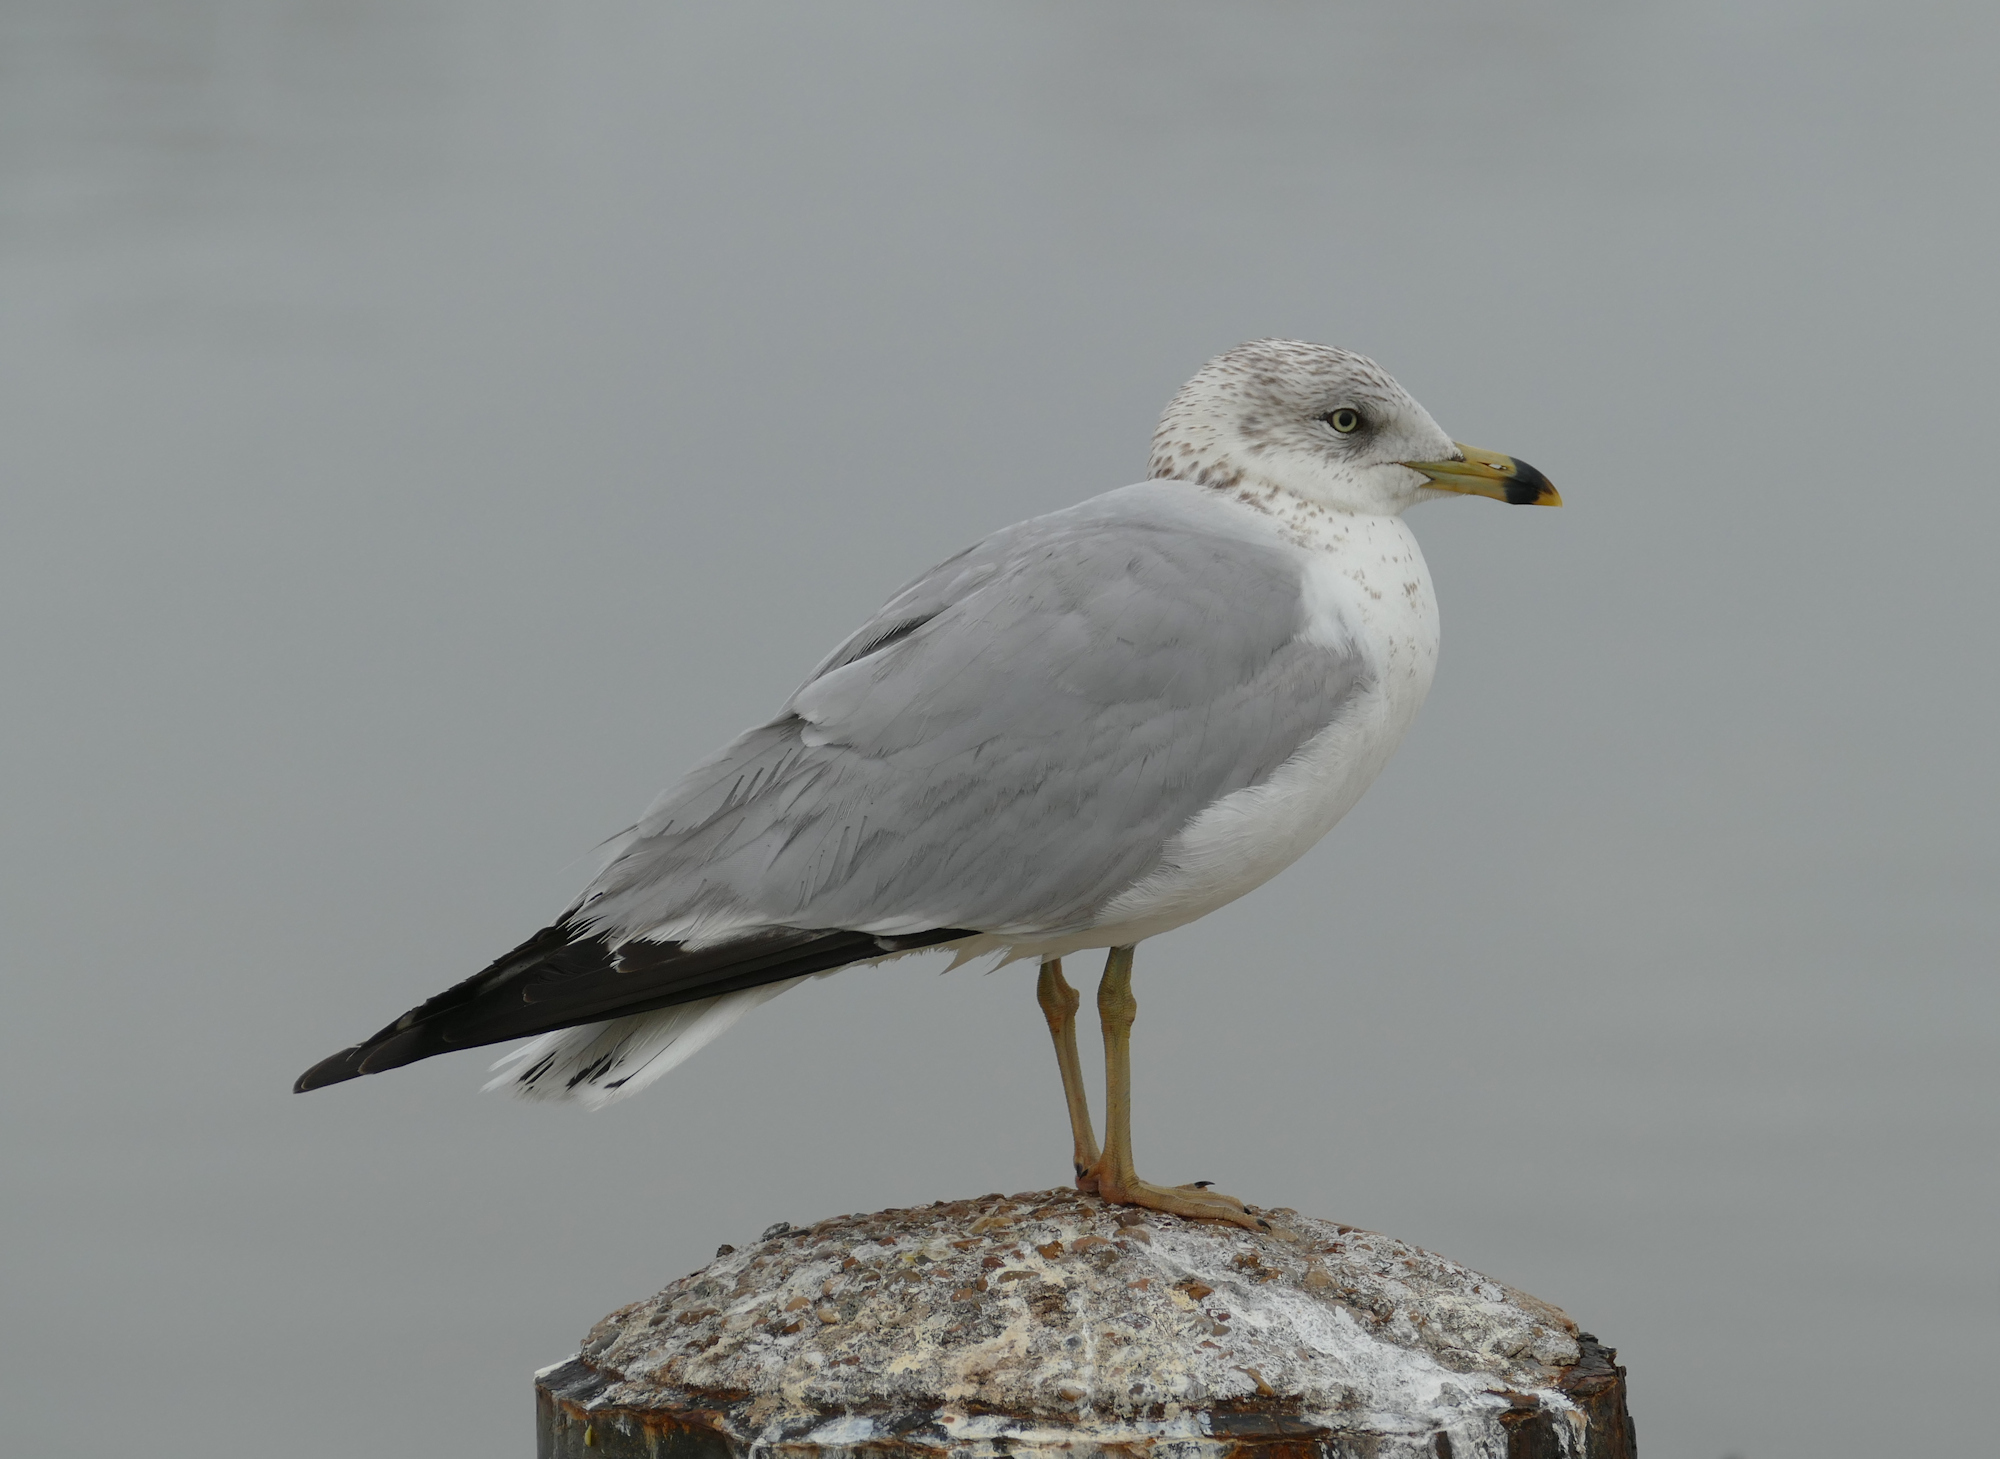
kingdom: Animalia
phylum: Chordata
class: Aves
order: Charadriiformes
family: Laridae
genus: Larus
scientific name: Larus delawarensis
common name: Ring-billed gull
